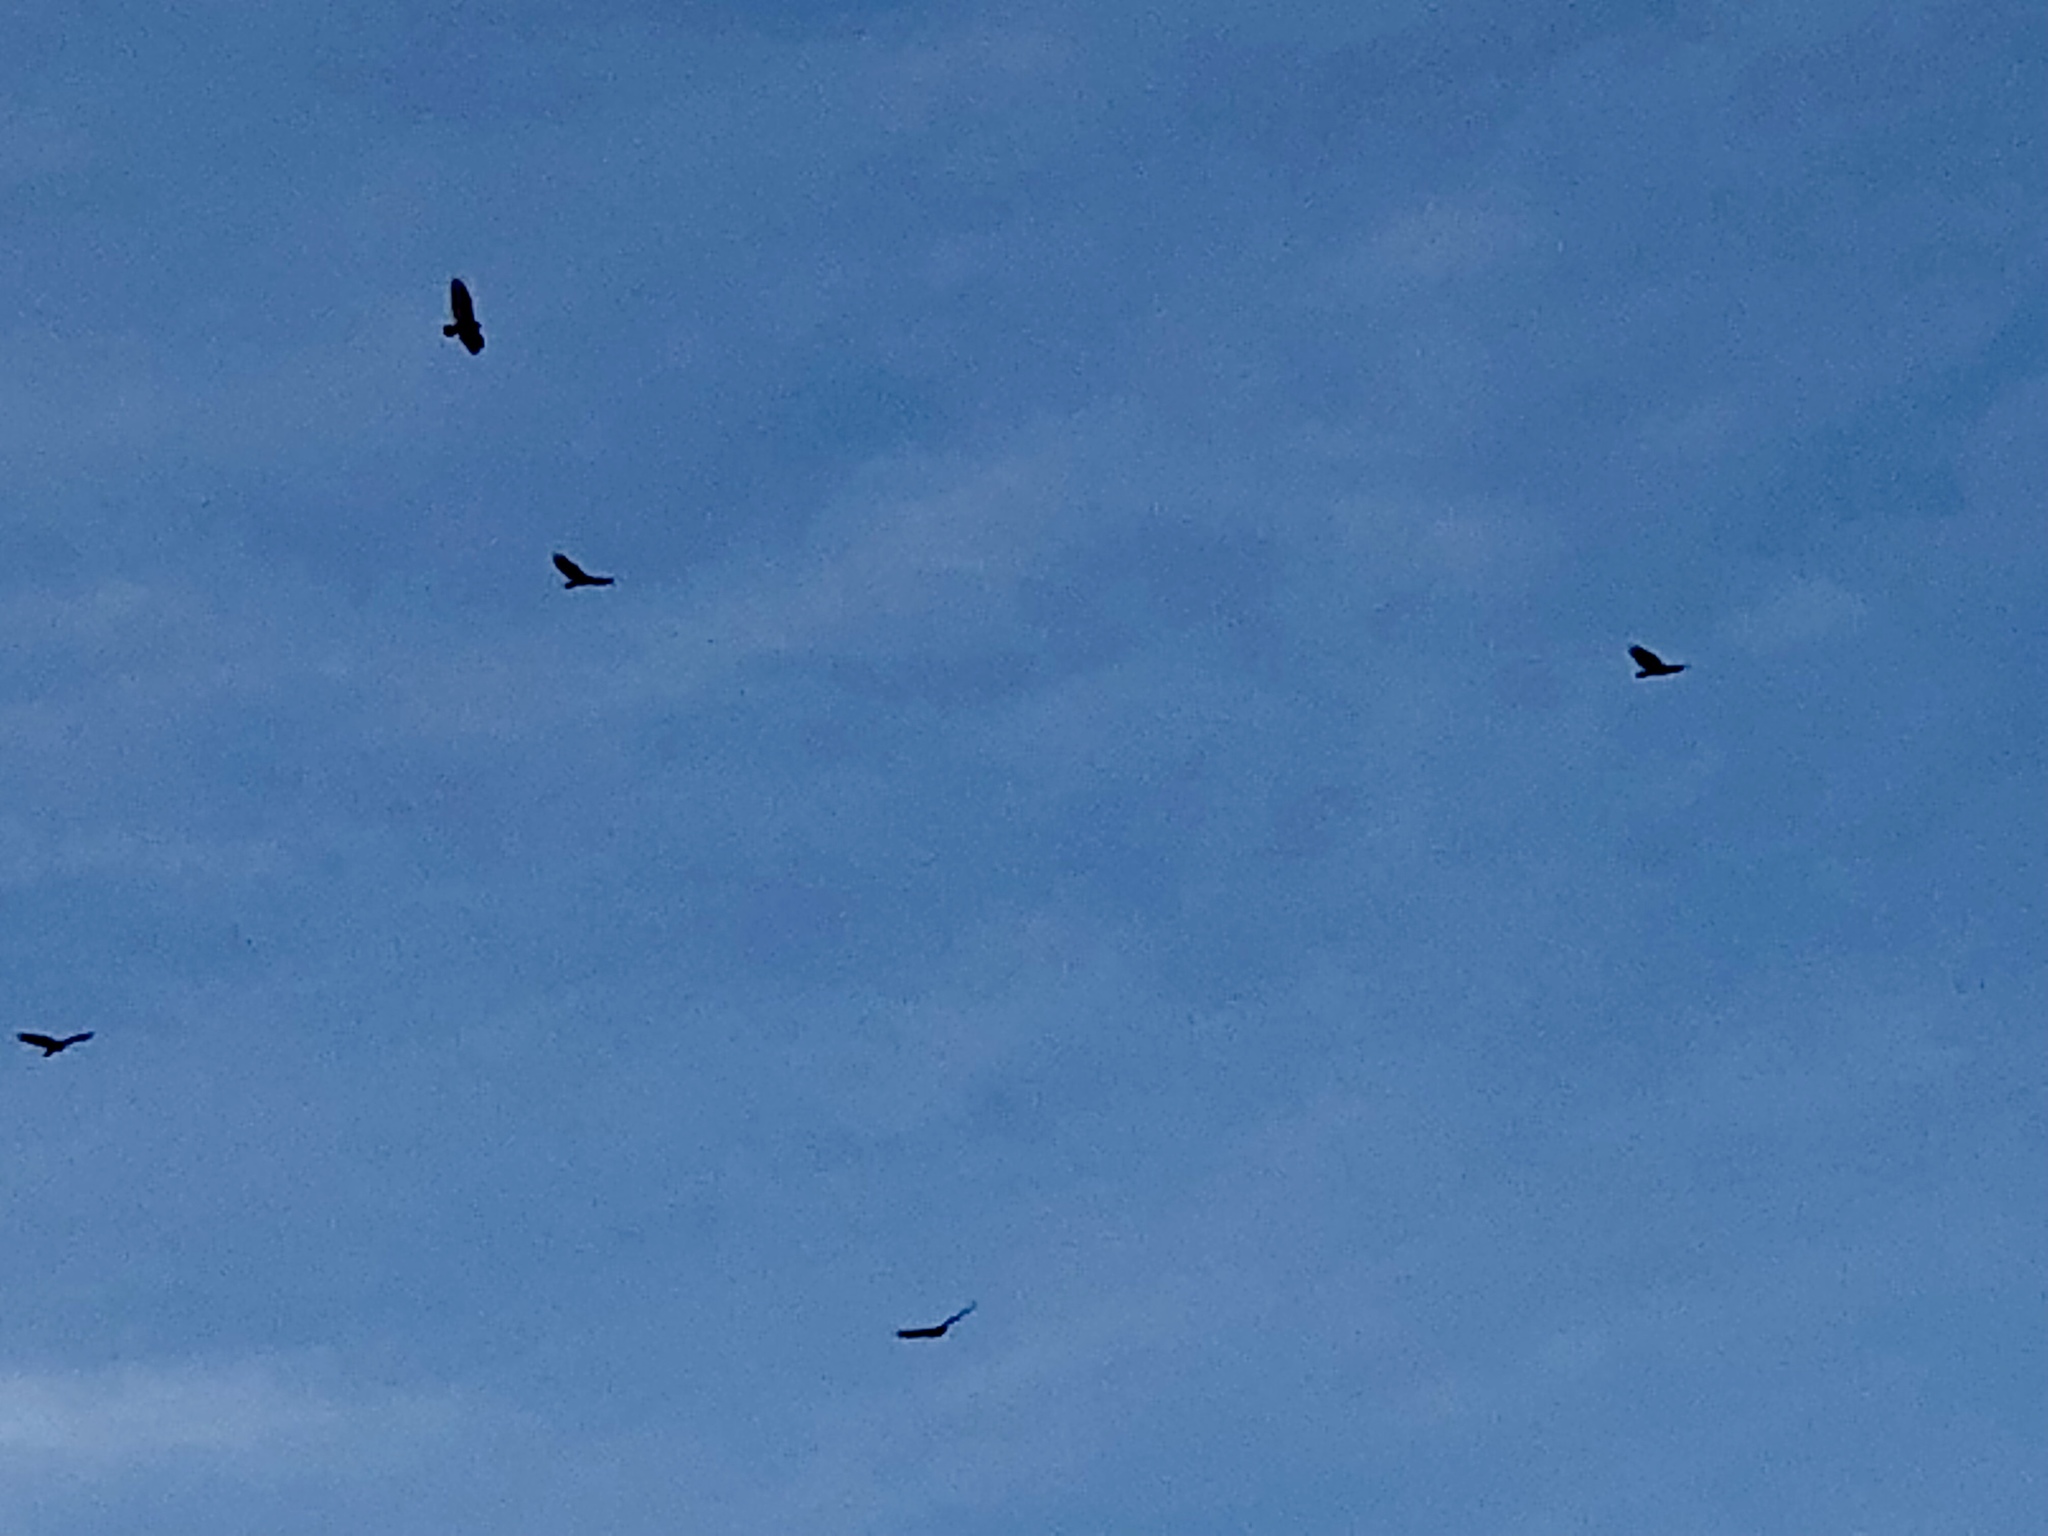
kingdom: Animalia
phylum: Chordata
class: Aves
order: Accipitriformes
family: Cathartidae
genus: Cathartes
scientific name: Cathartes aura
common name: Turkey vulture
